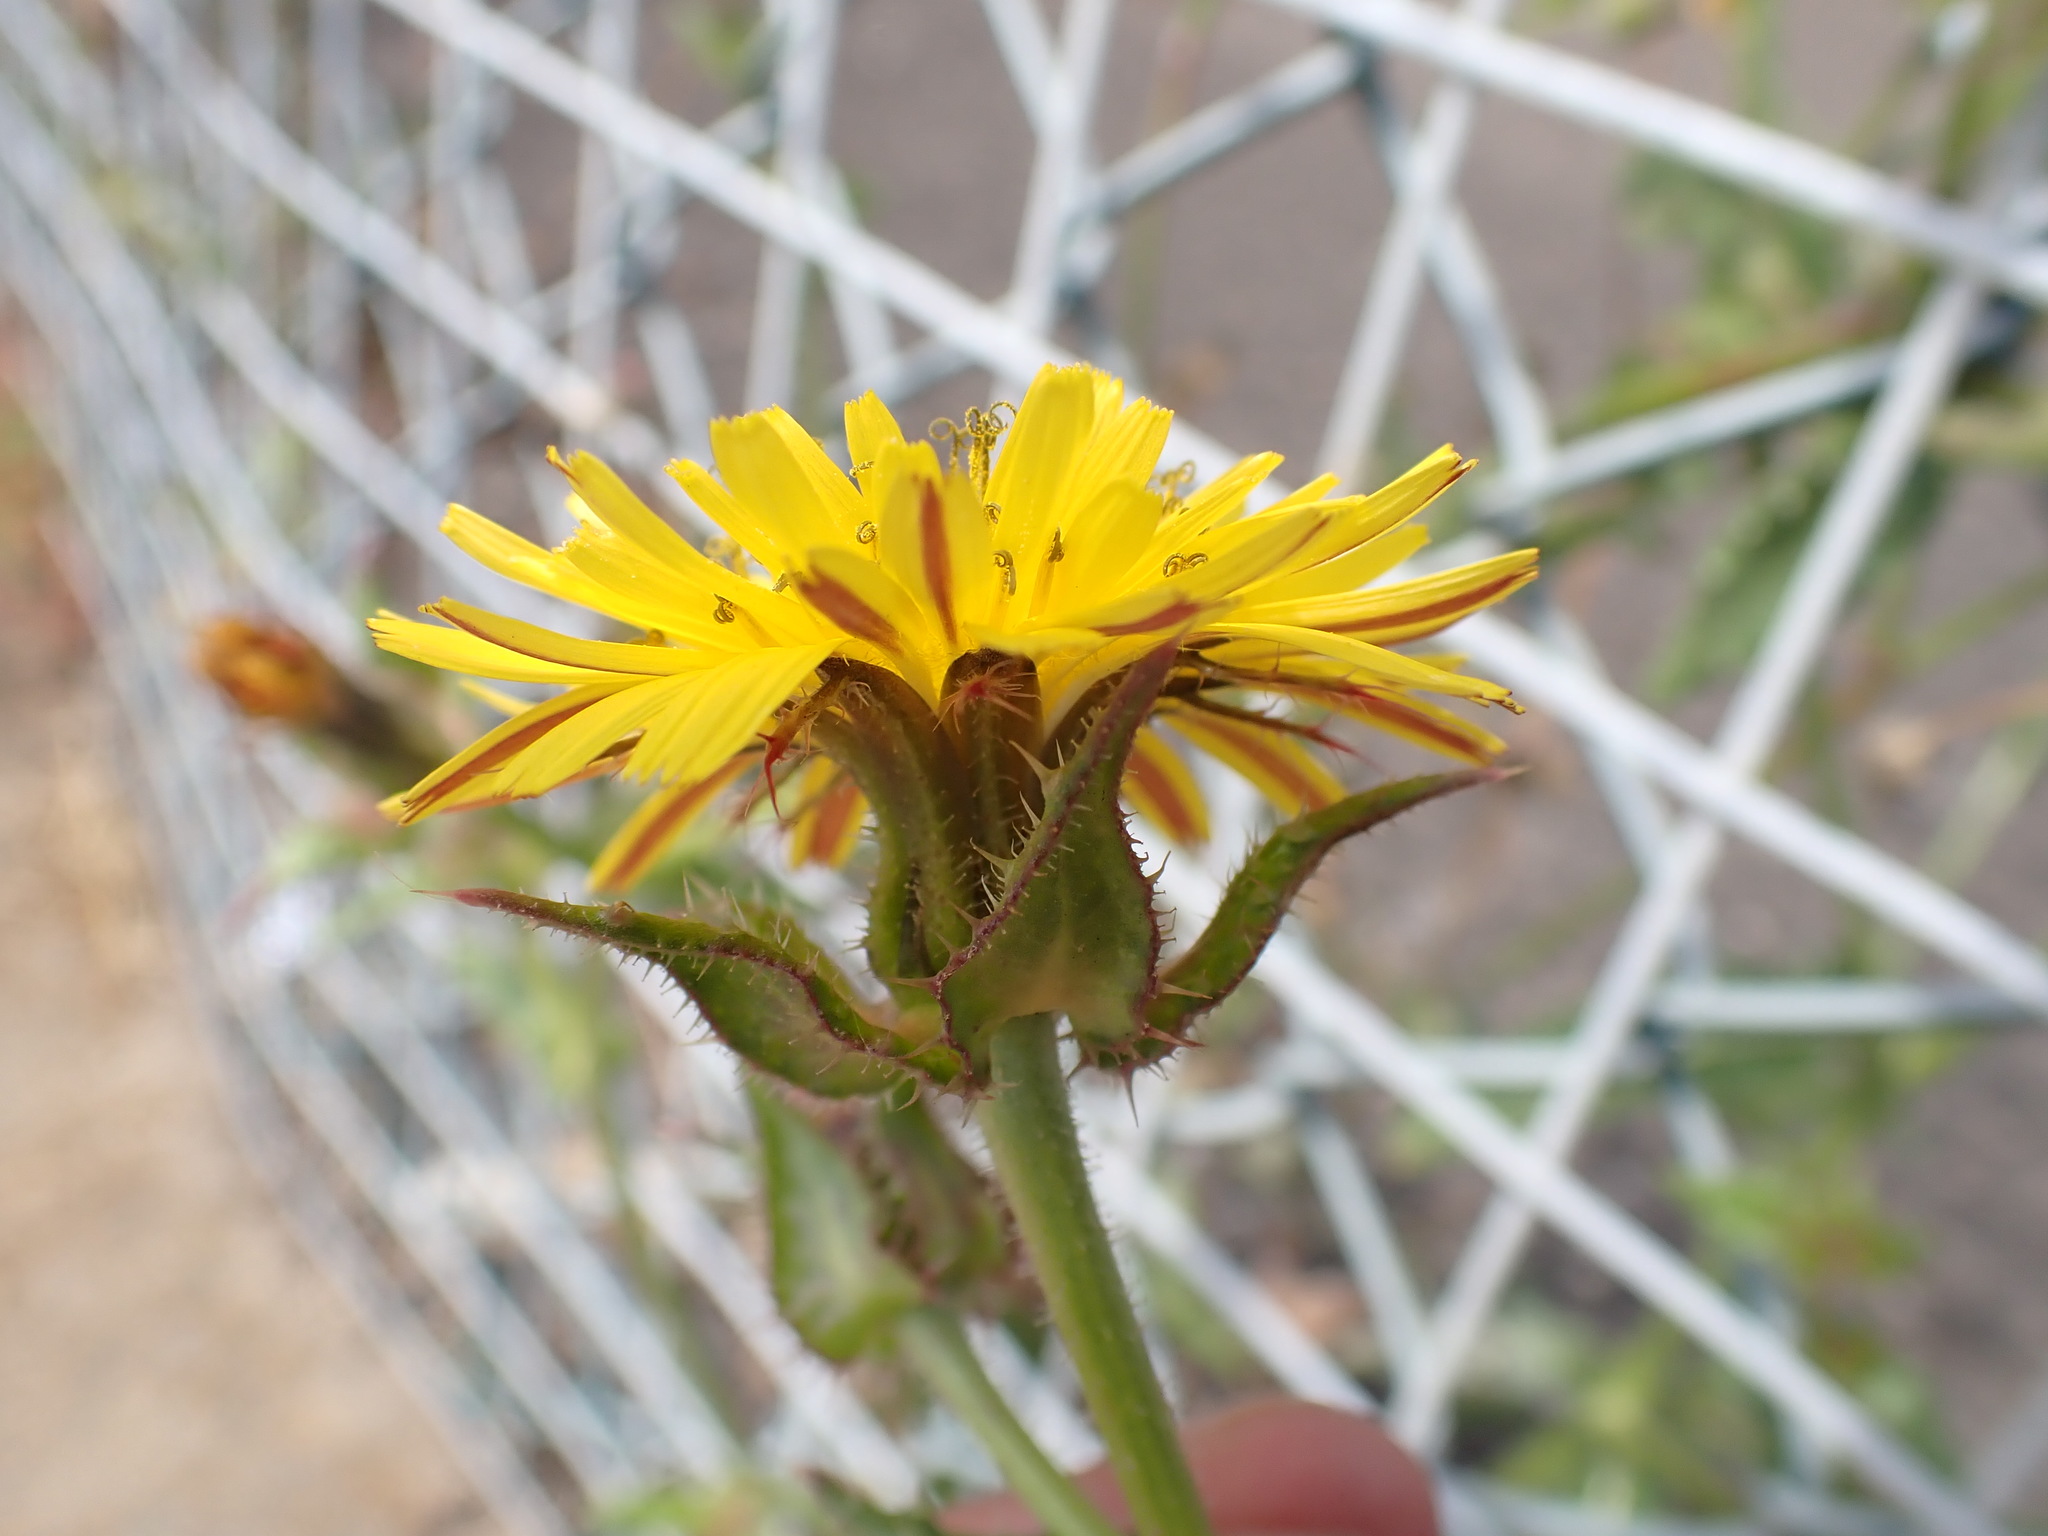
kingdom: Plantae
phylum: Tracheophyta
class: Magnoliopsida
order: Asterales
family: Asteraceae
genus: Helminthotheca
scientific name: Helminthotheca echioides
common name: Ox-tongue
